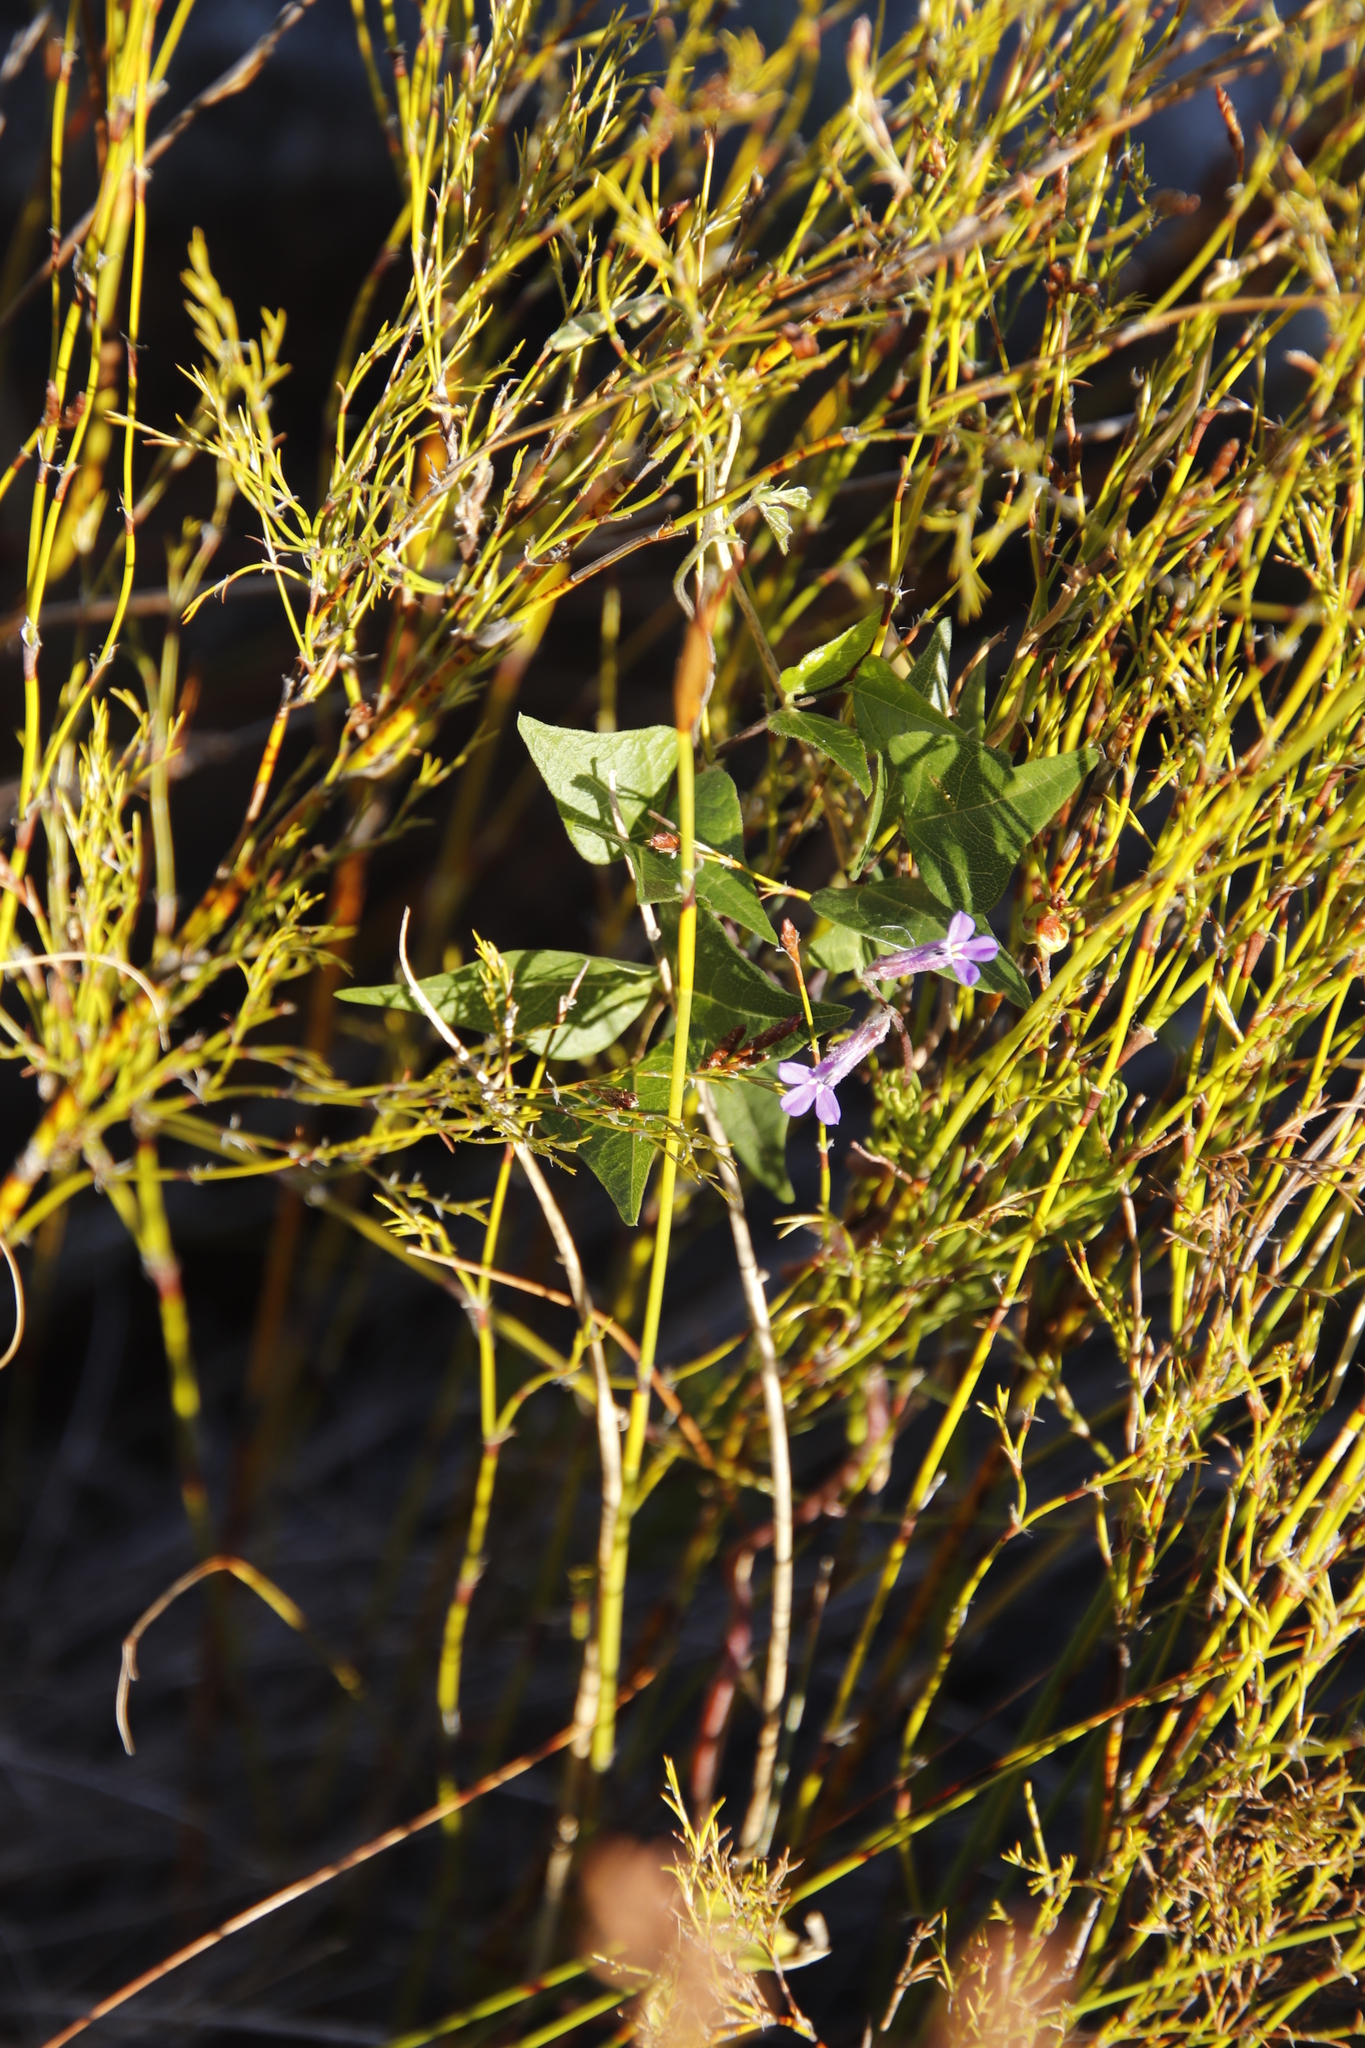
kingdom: Plantae
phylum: Tracheophyta
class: Magnoliopsida
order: Asterales
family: Campanulaceae
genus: Lobelia
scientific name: Lobelia pinifolia
